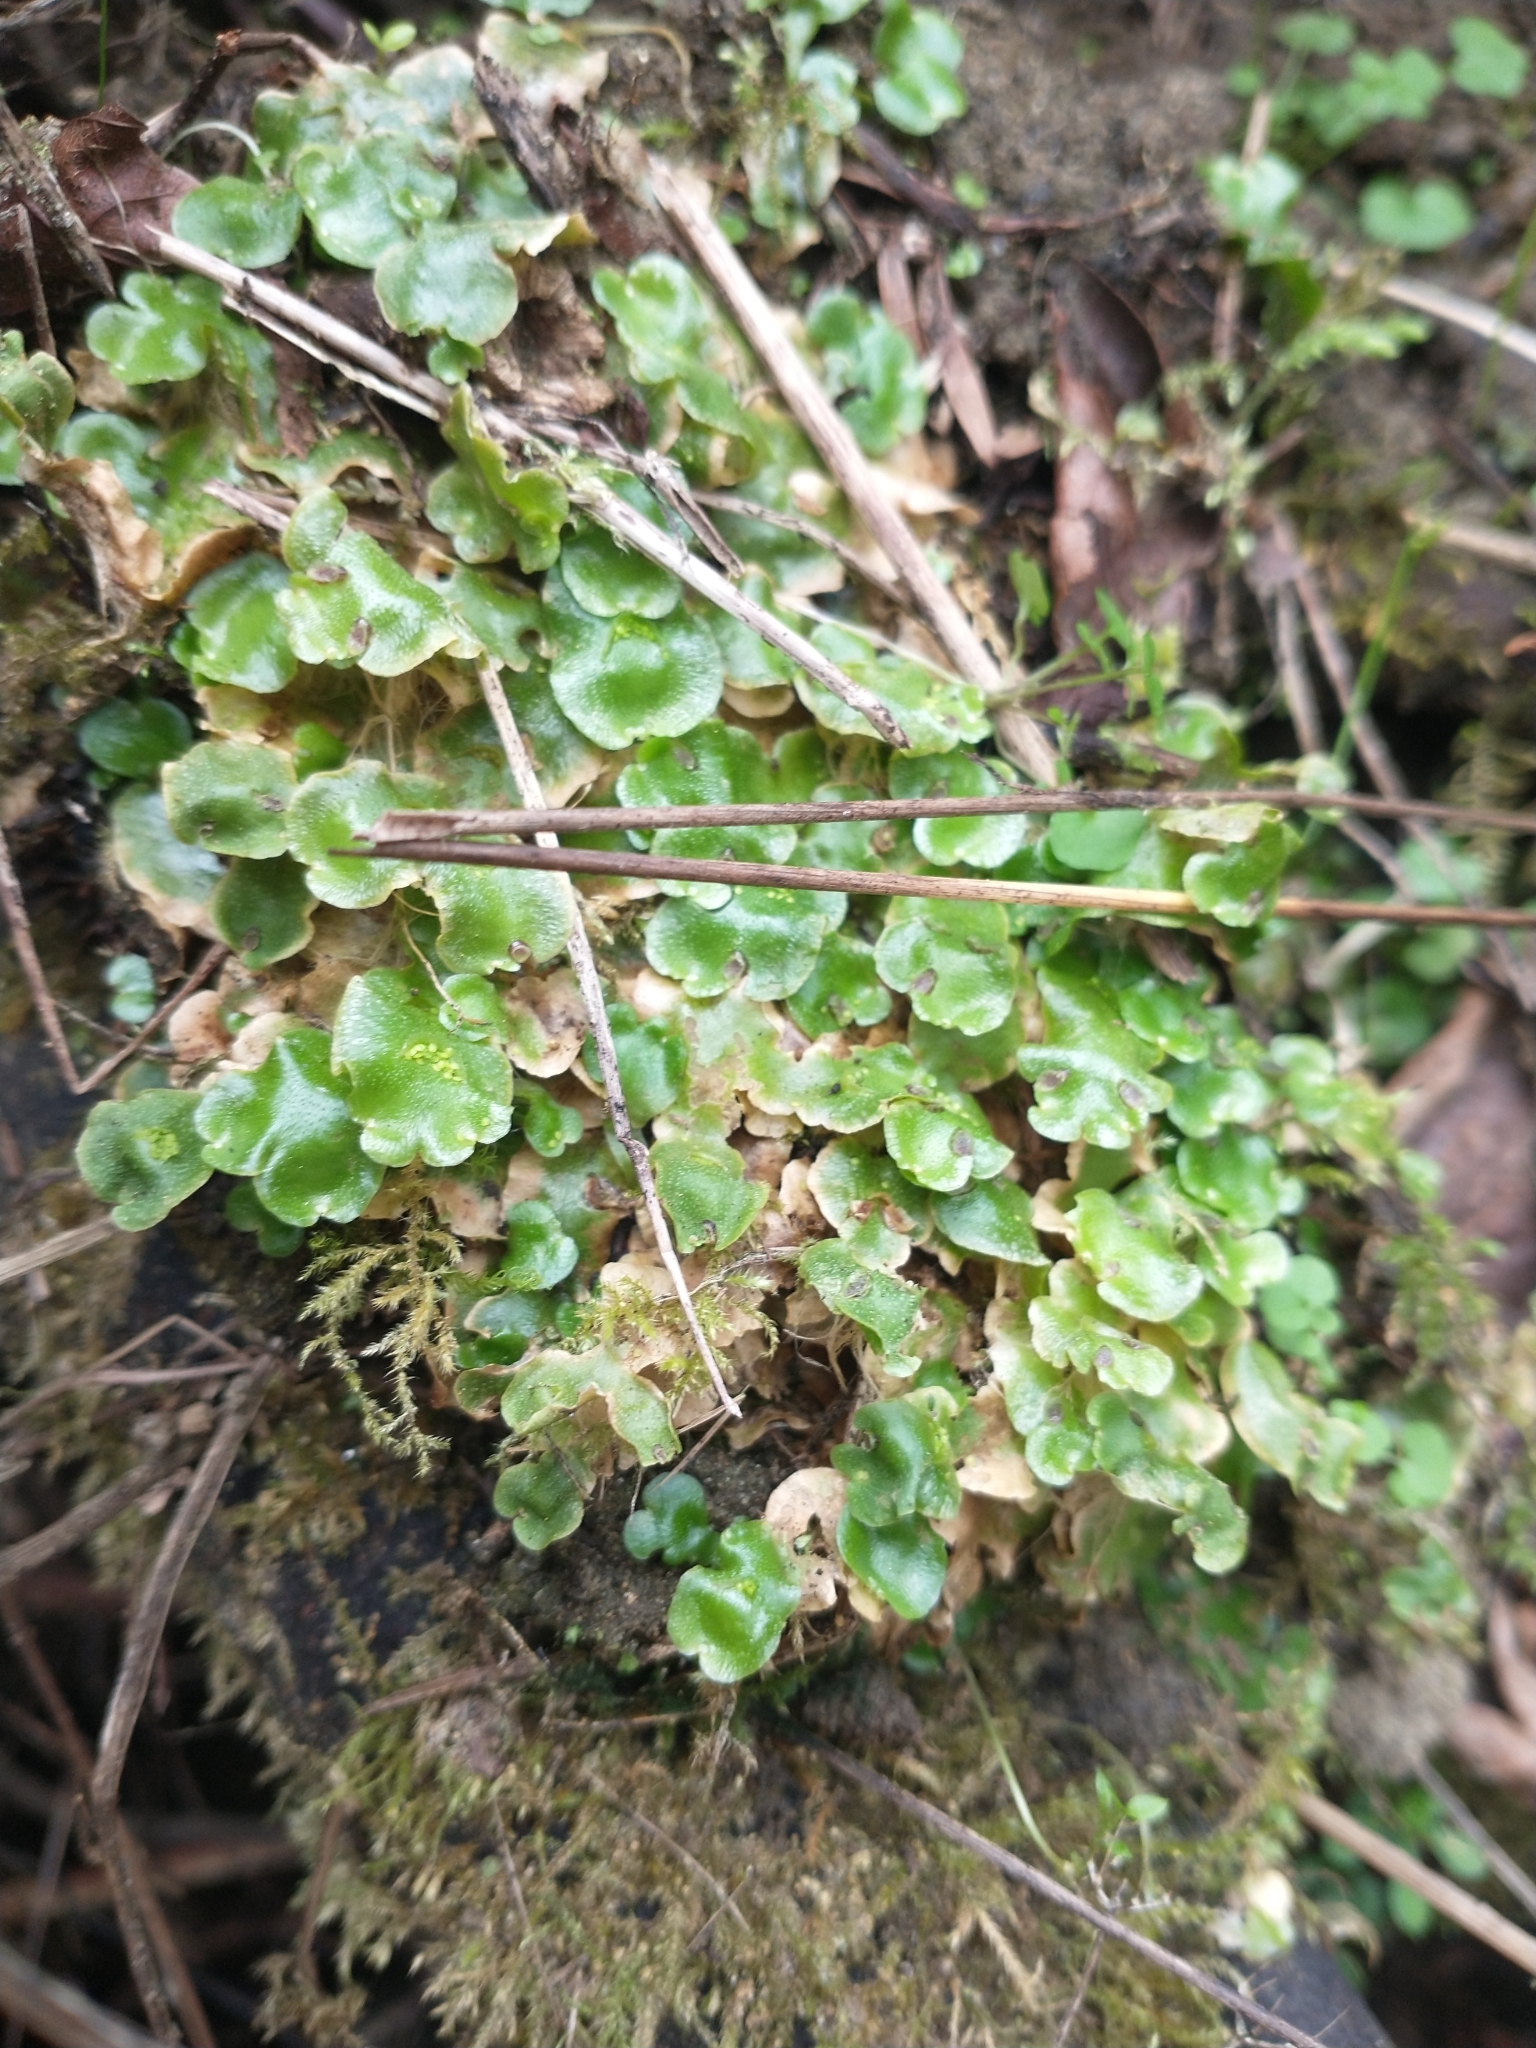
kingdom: Plantae
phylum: Marchantiophyta
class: Marchantiopsida
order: Lunulariales
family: Lunulariaceae
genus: Lunularia
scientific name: Lunularia cruciata
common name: Crescent-cup liverwort
